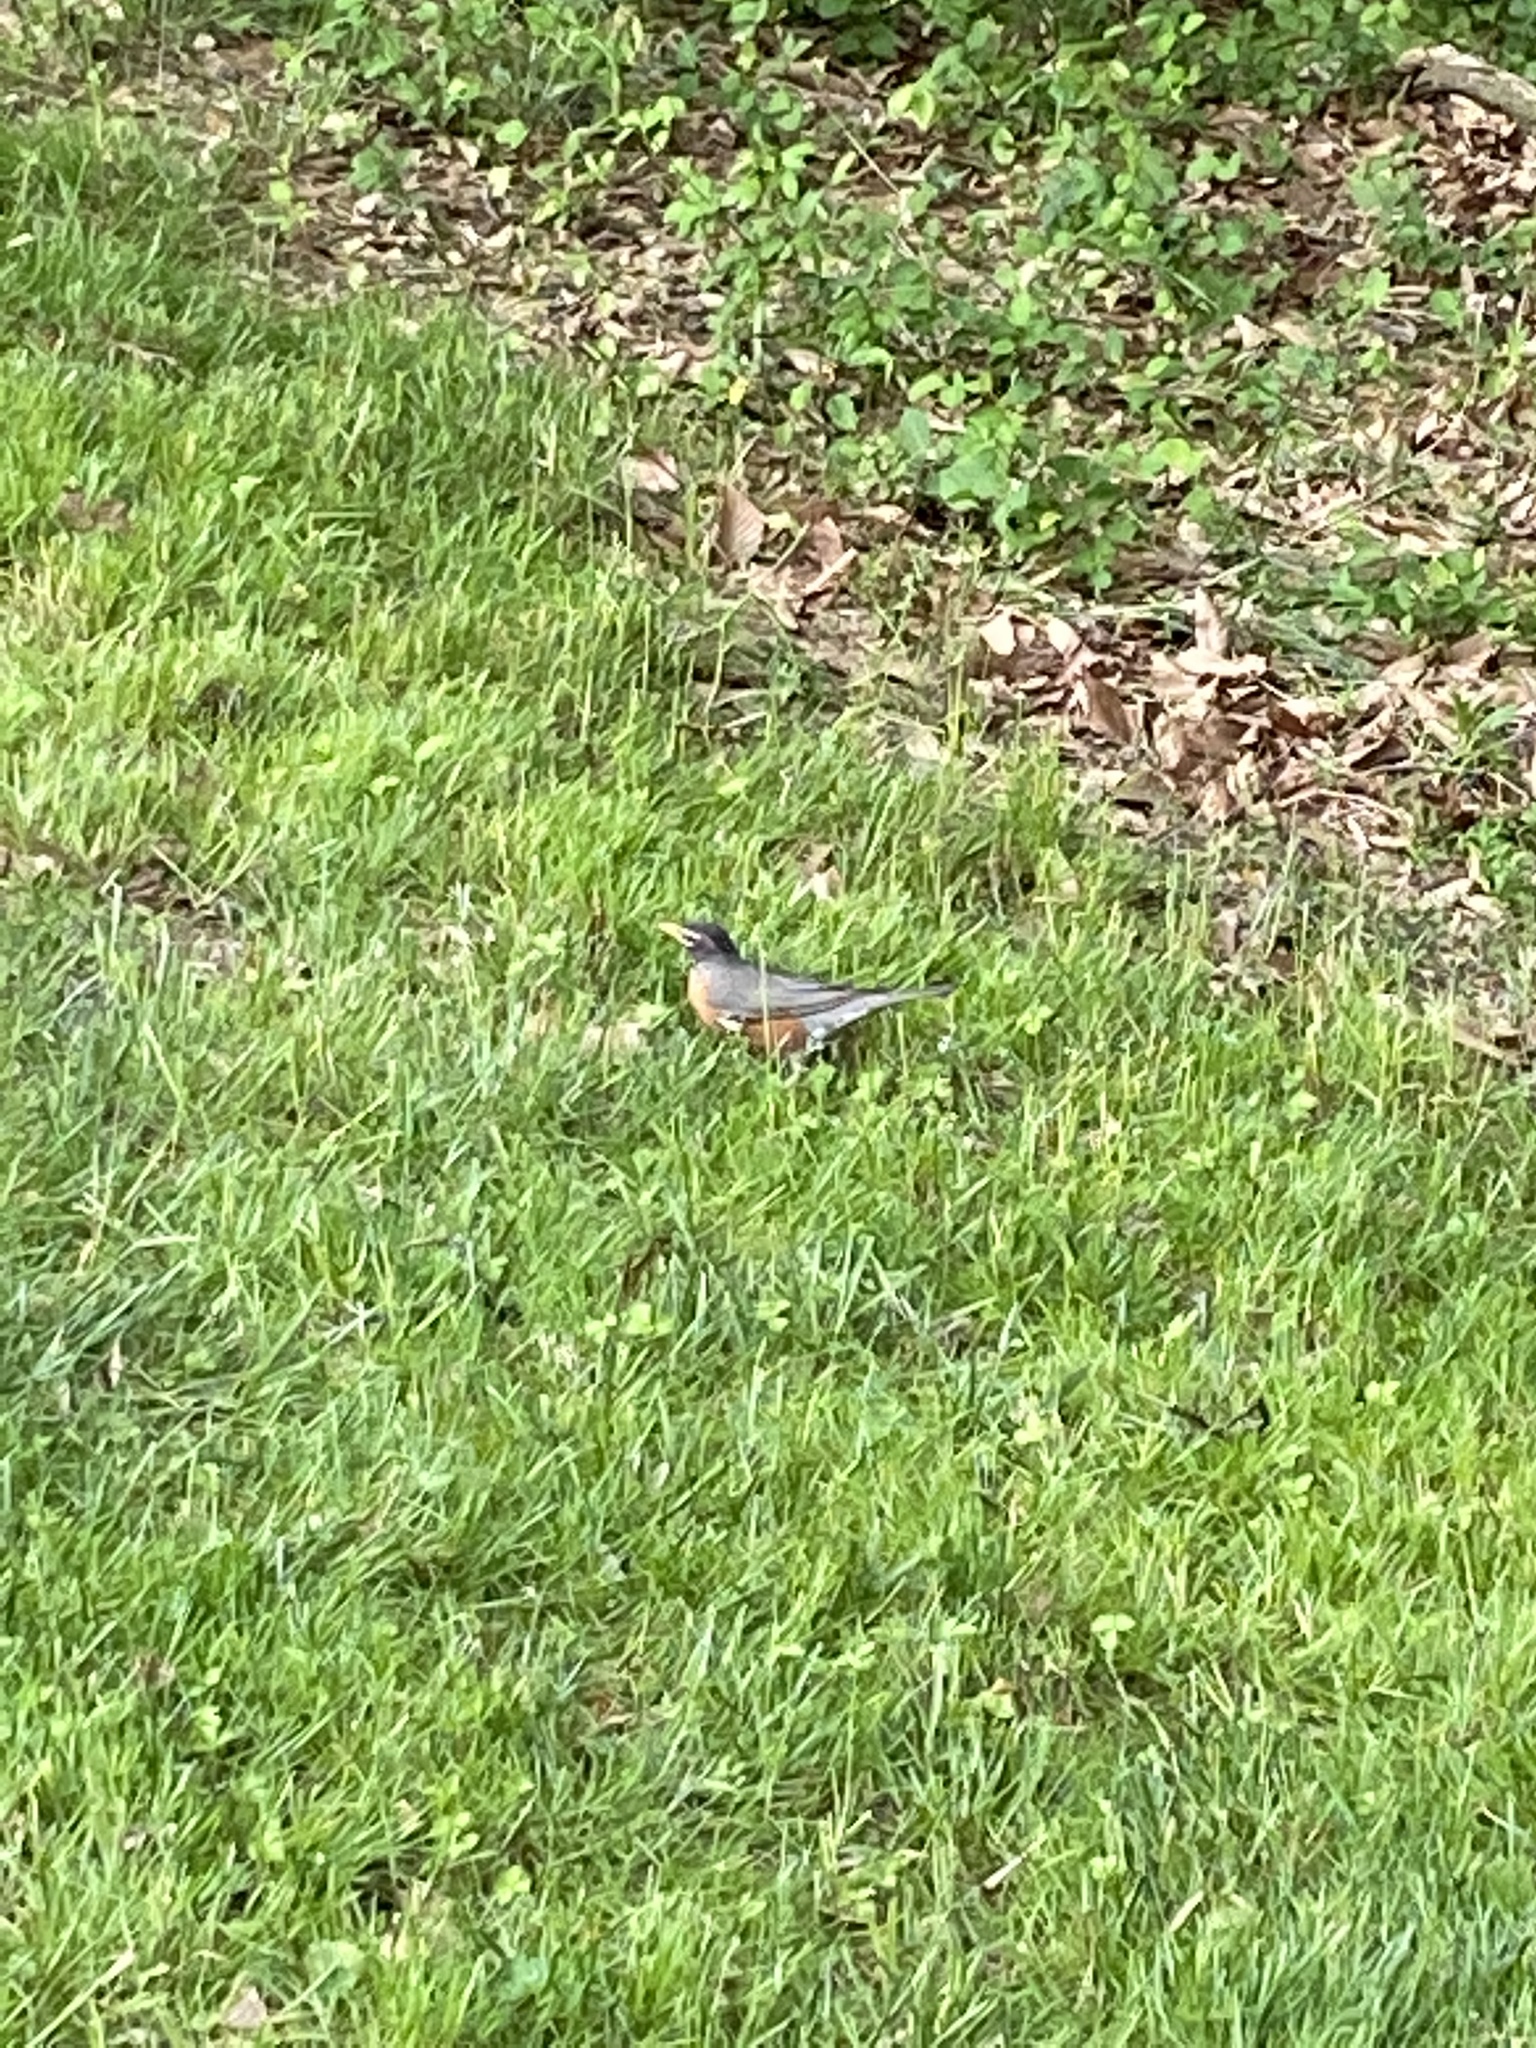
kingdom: Animalia
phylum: Chordata
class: Aves
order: Passeriformes
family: Turdidae
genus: Turdus
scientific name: Turdus migratorius
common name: American robin
